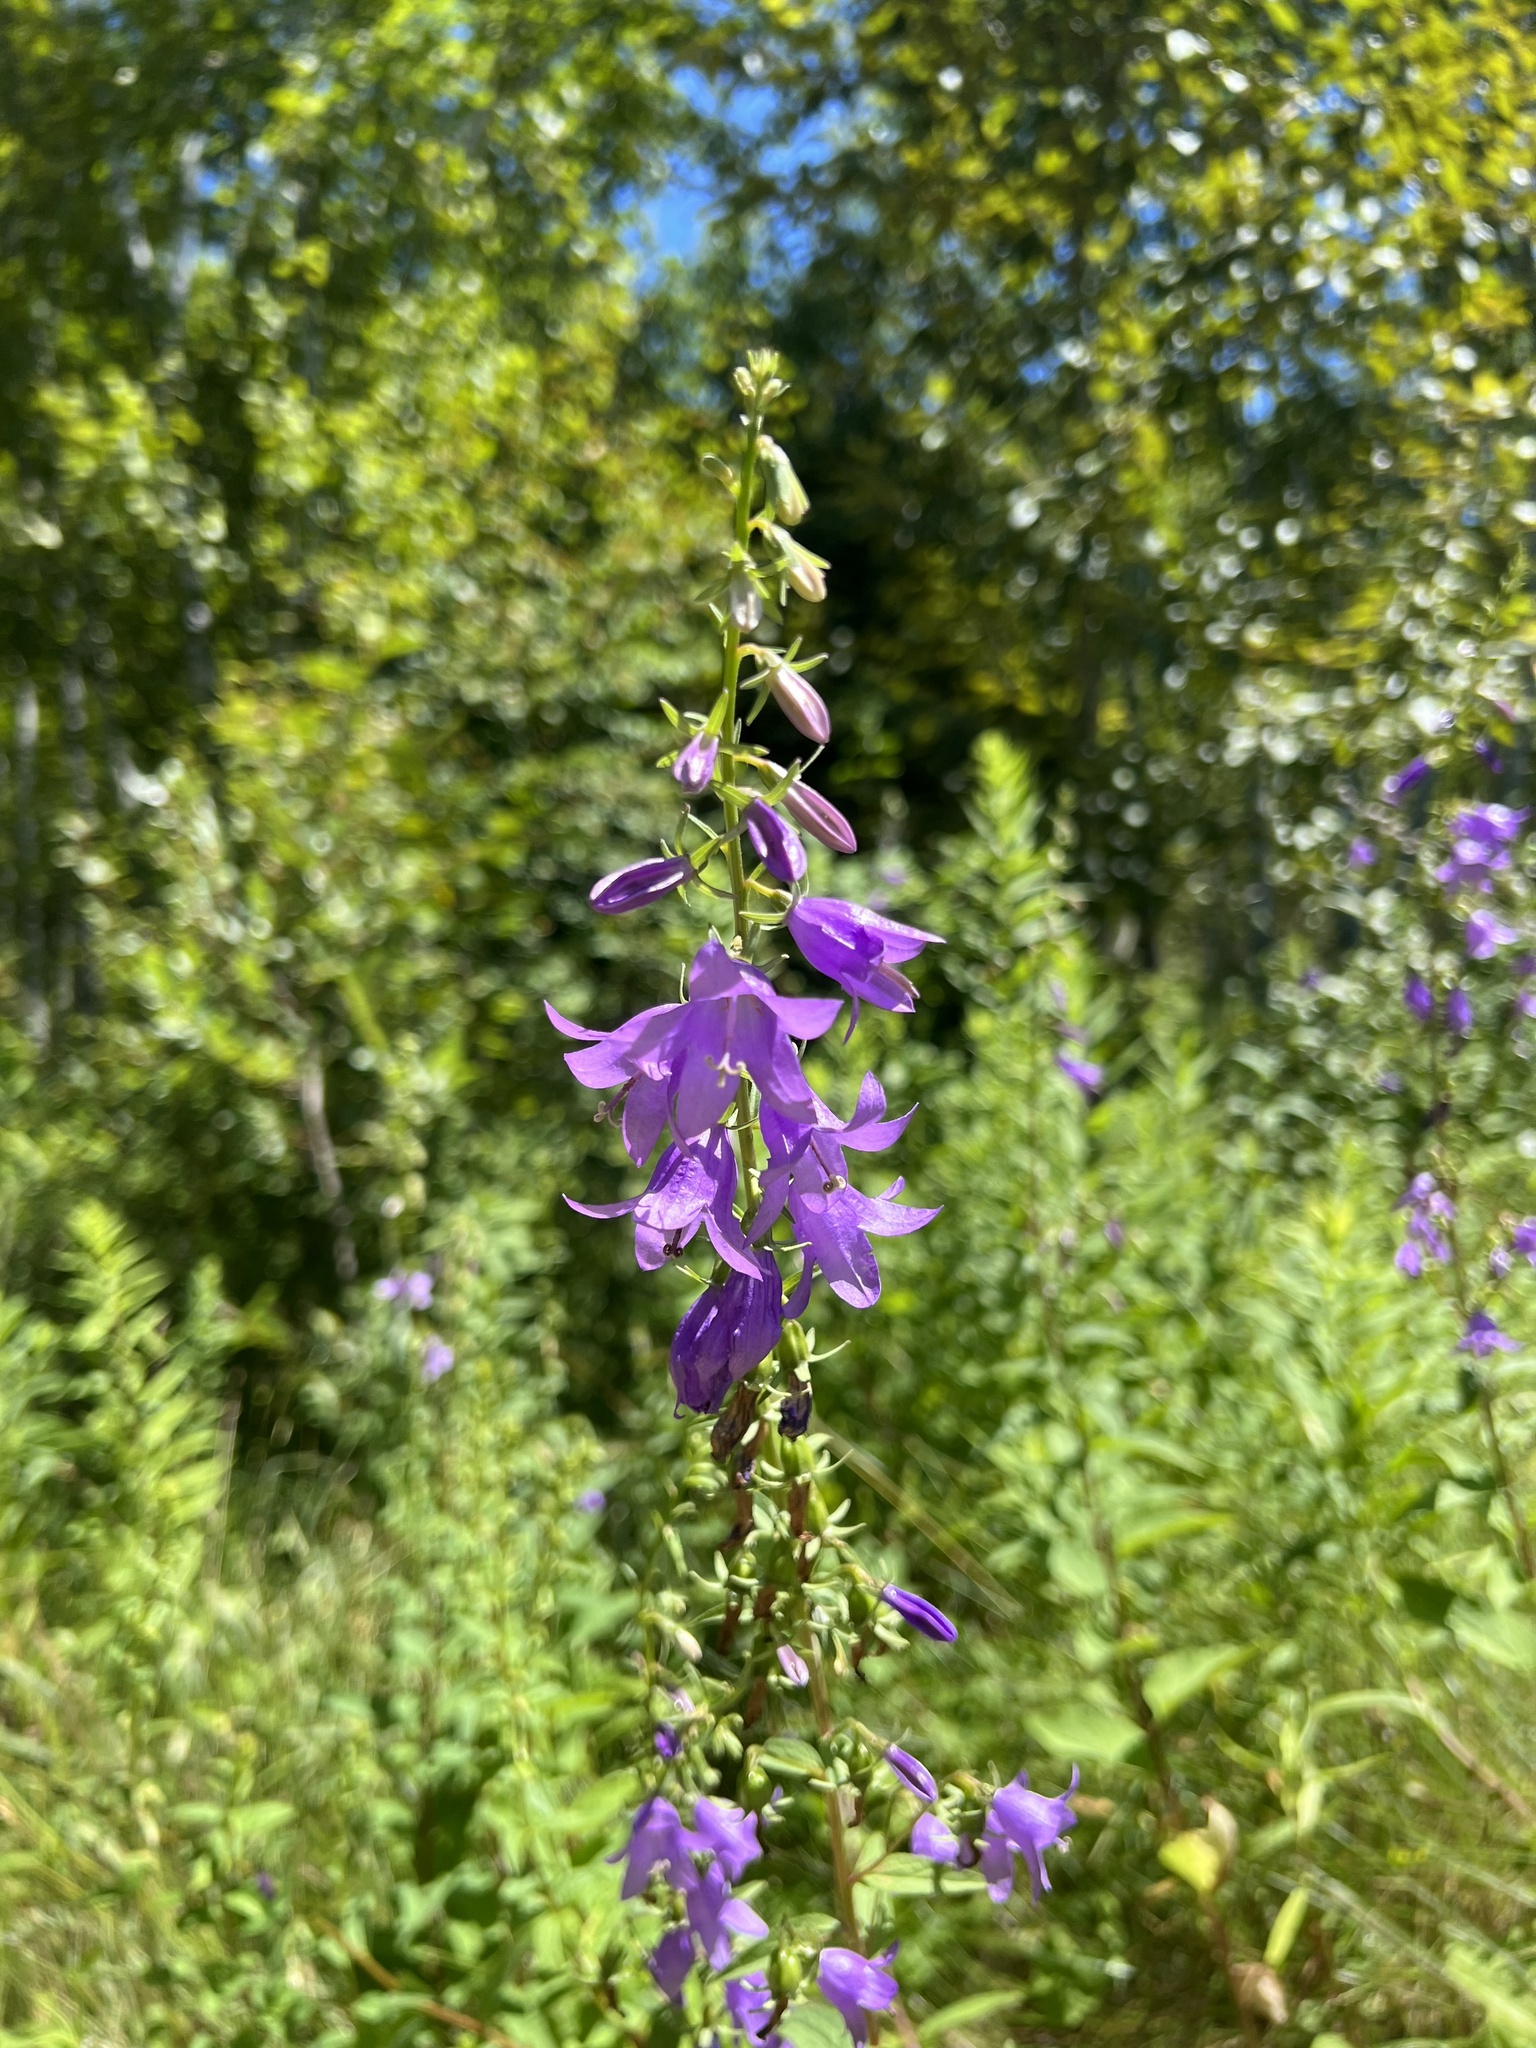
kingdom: Plantae
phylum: Tracheophyta
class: Magnoliopsida
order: Asterales
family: Campanulaceae
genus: Campanula
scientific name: Campanula rapunculoides
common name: Creeping bellflower
